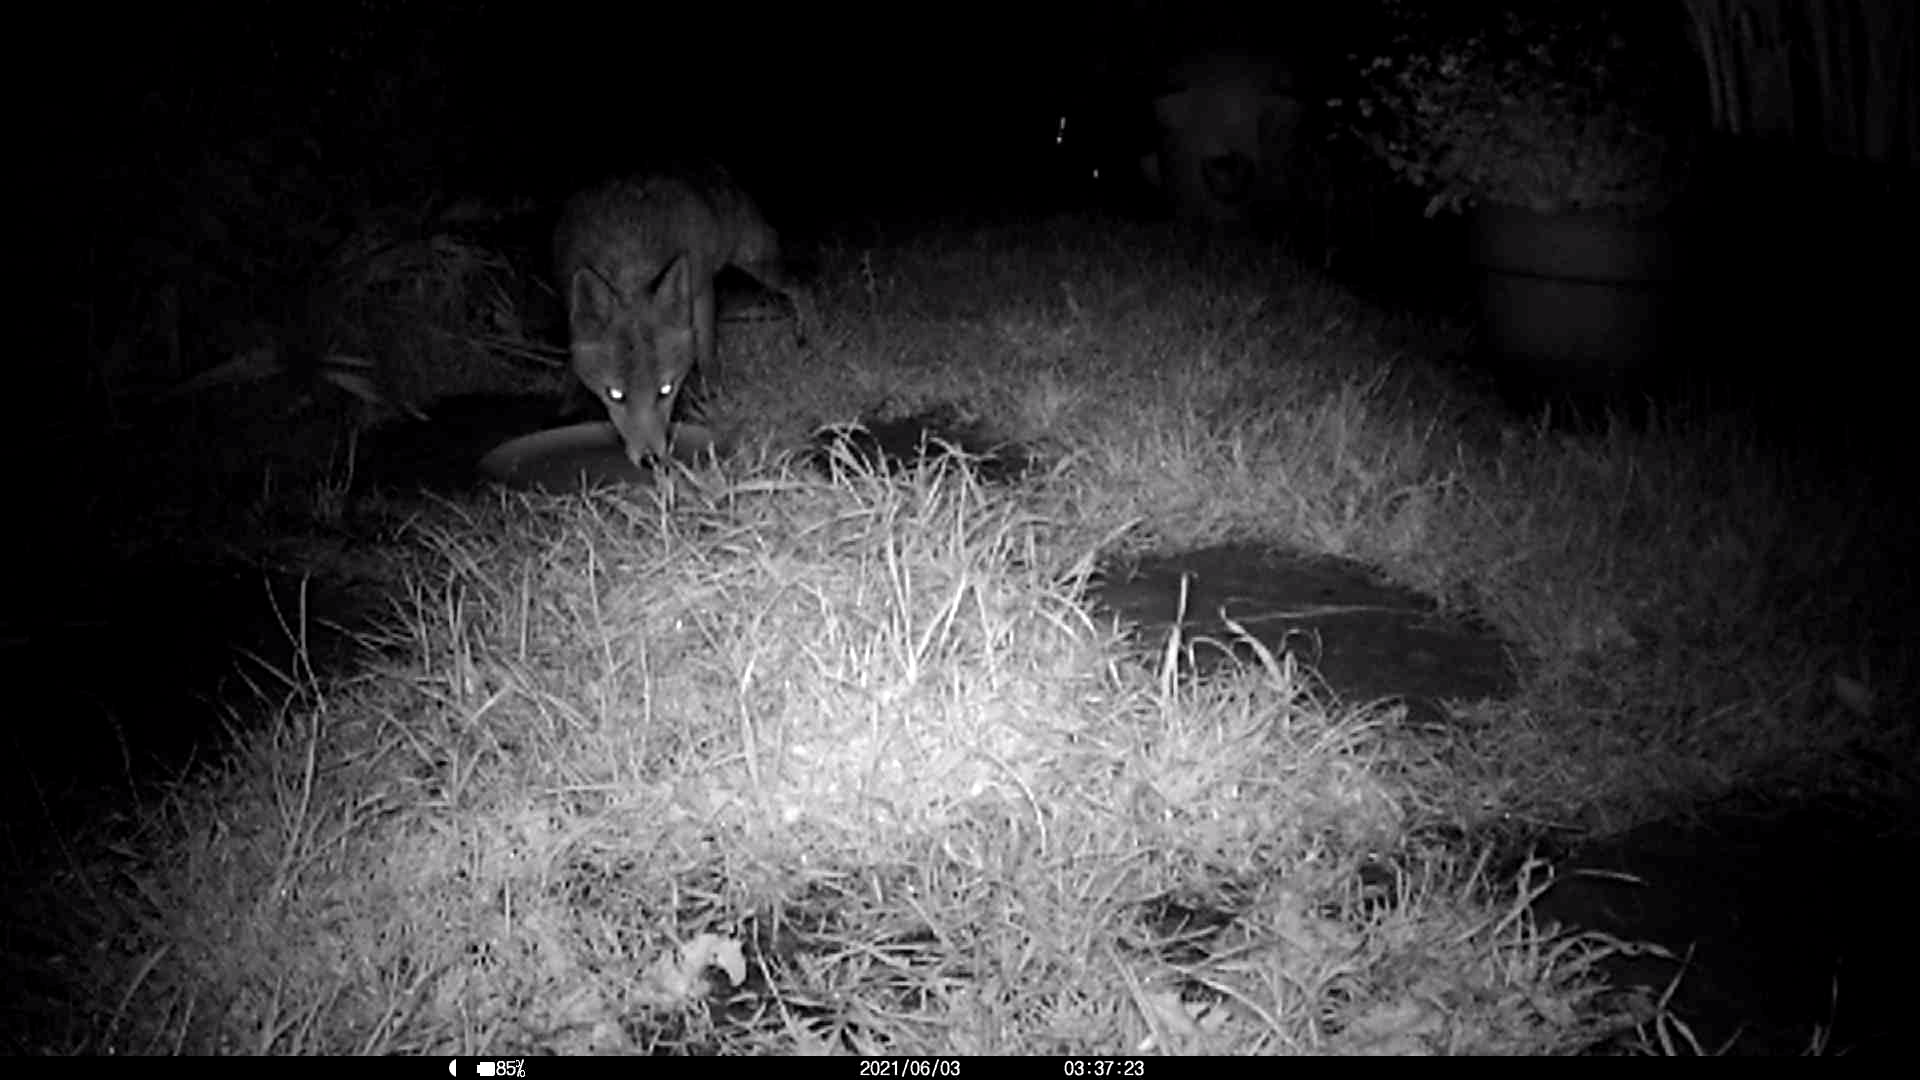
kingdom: Animalia
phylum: Chordata
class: Mammalia
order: Carnivora
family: Canidae
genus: Vulpes
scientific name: Vulpes vulpes
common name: Red fox
